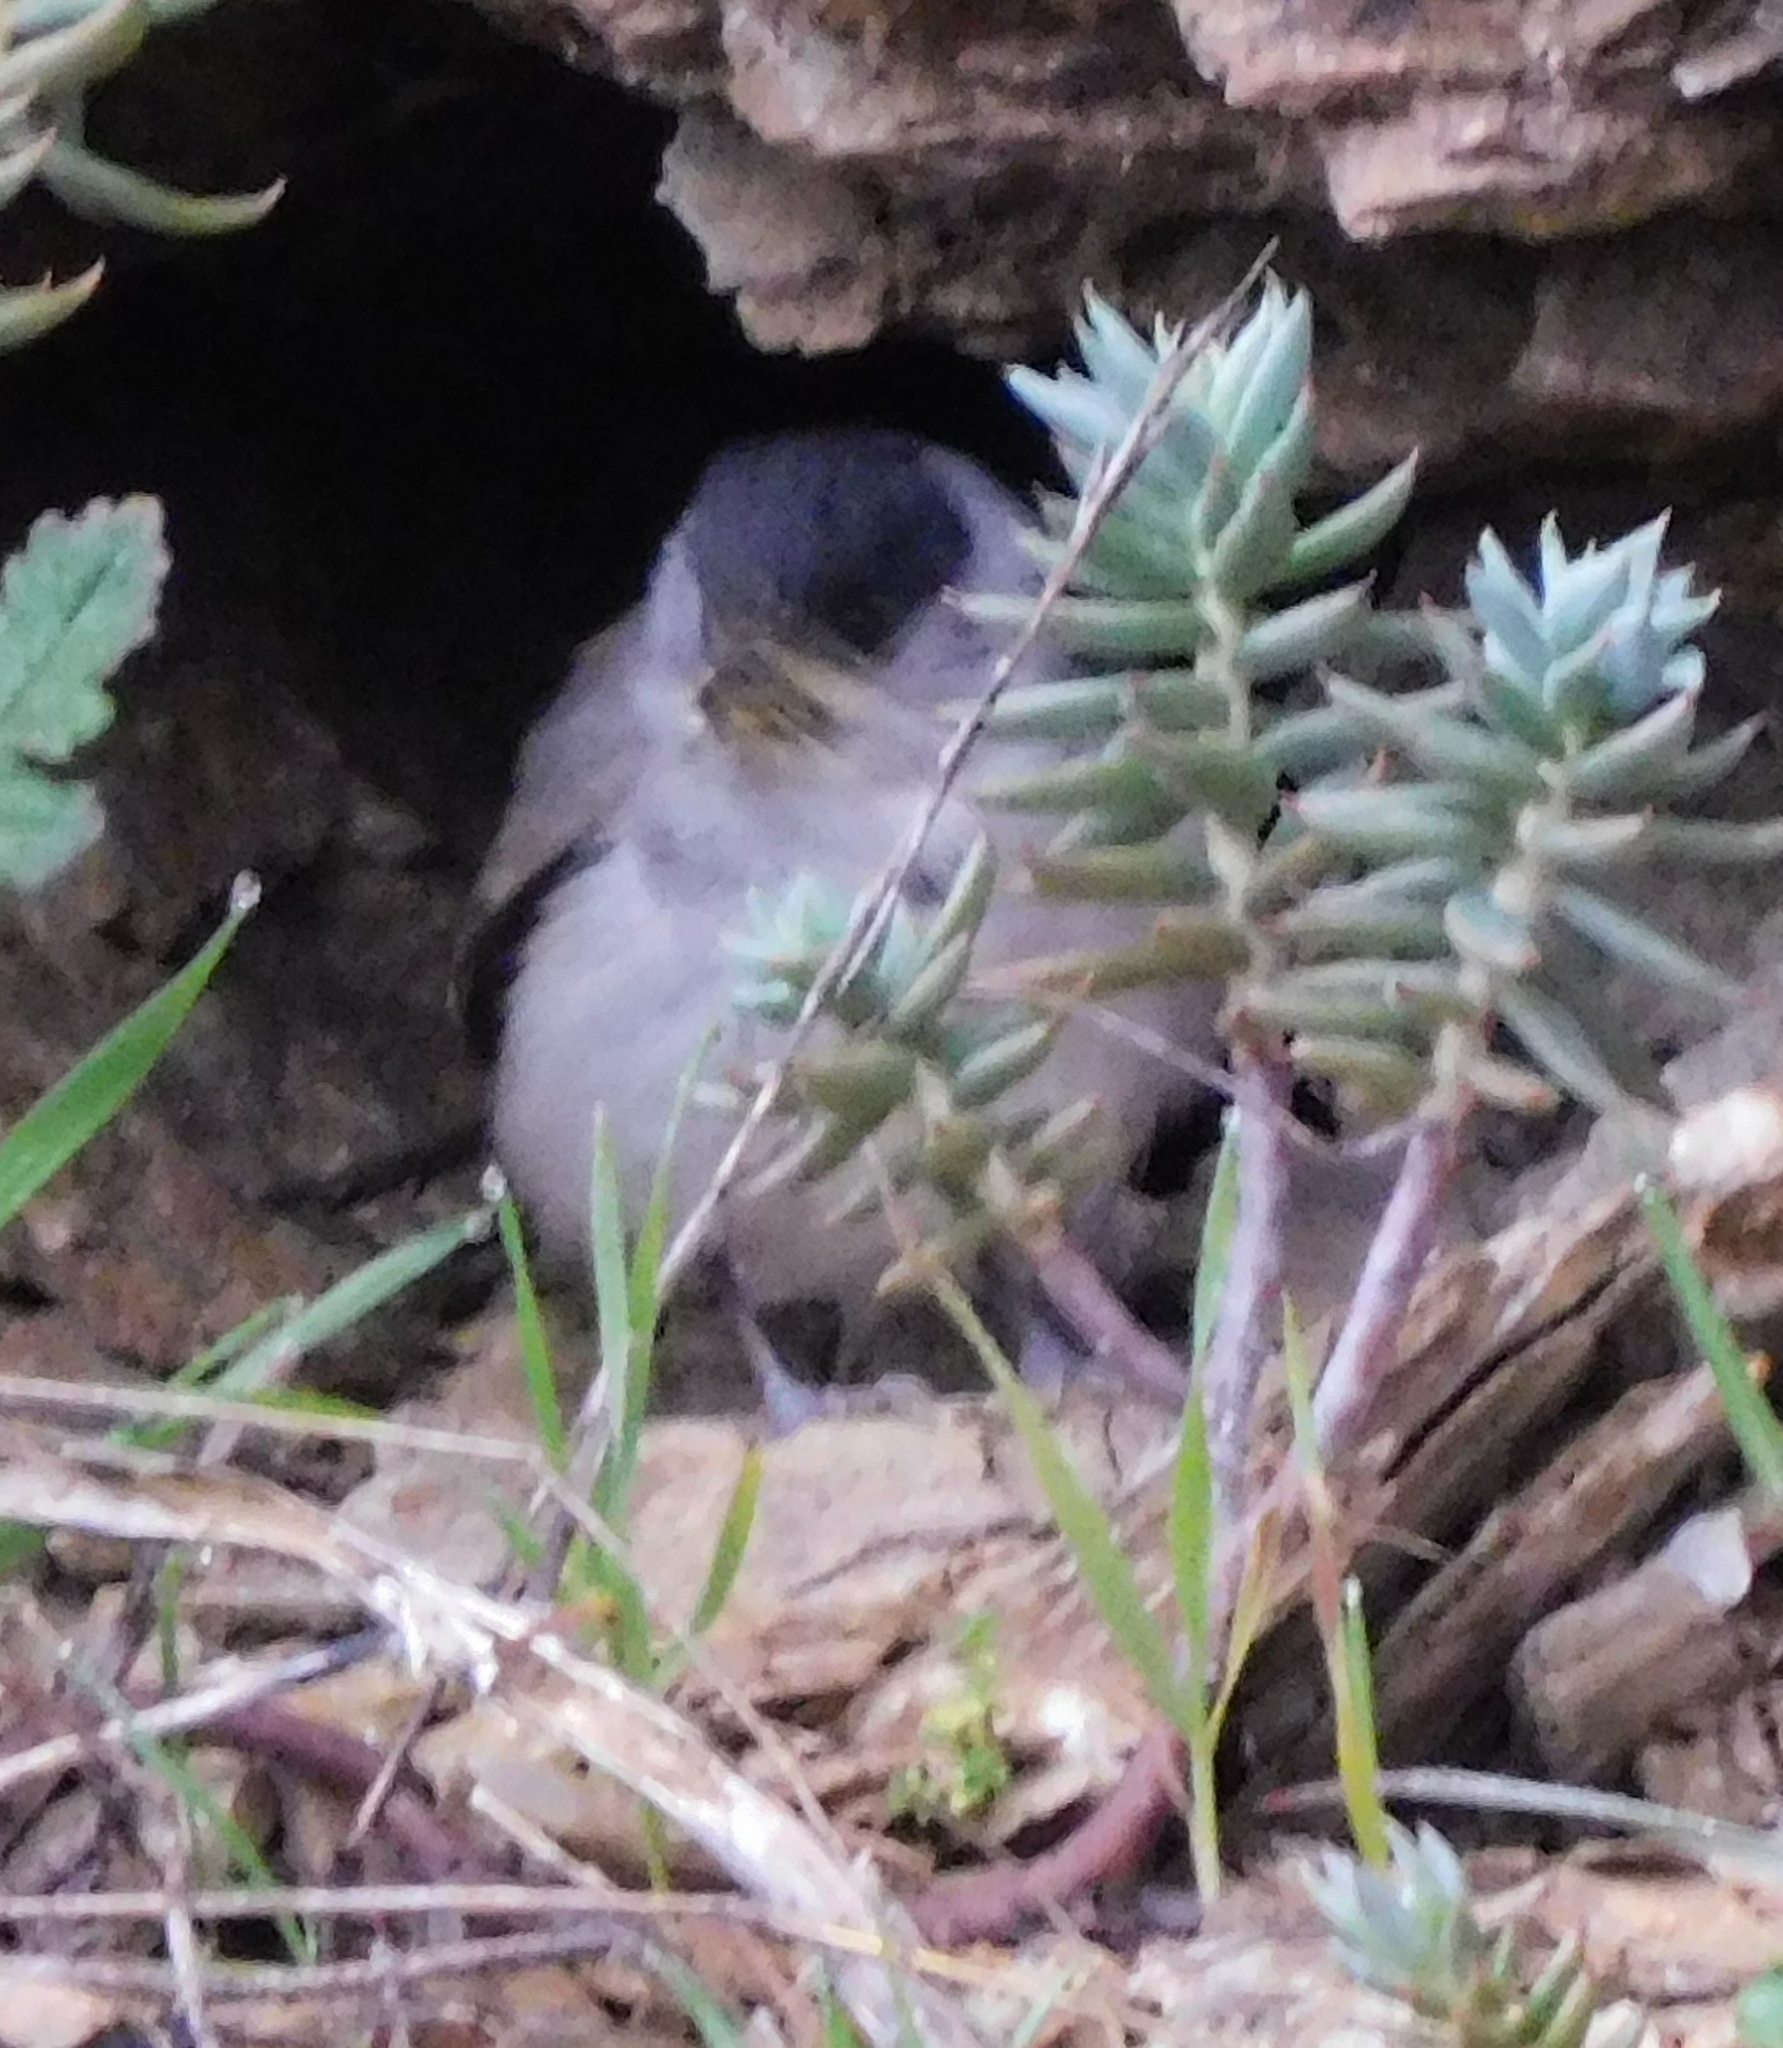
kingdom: Animalia
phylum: Chordata
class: Aves
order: Passeriformes
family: Sylviidae
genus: Sylvia
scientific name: Sylvia atricapilla
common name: Eurasian blackcap
